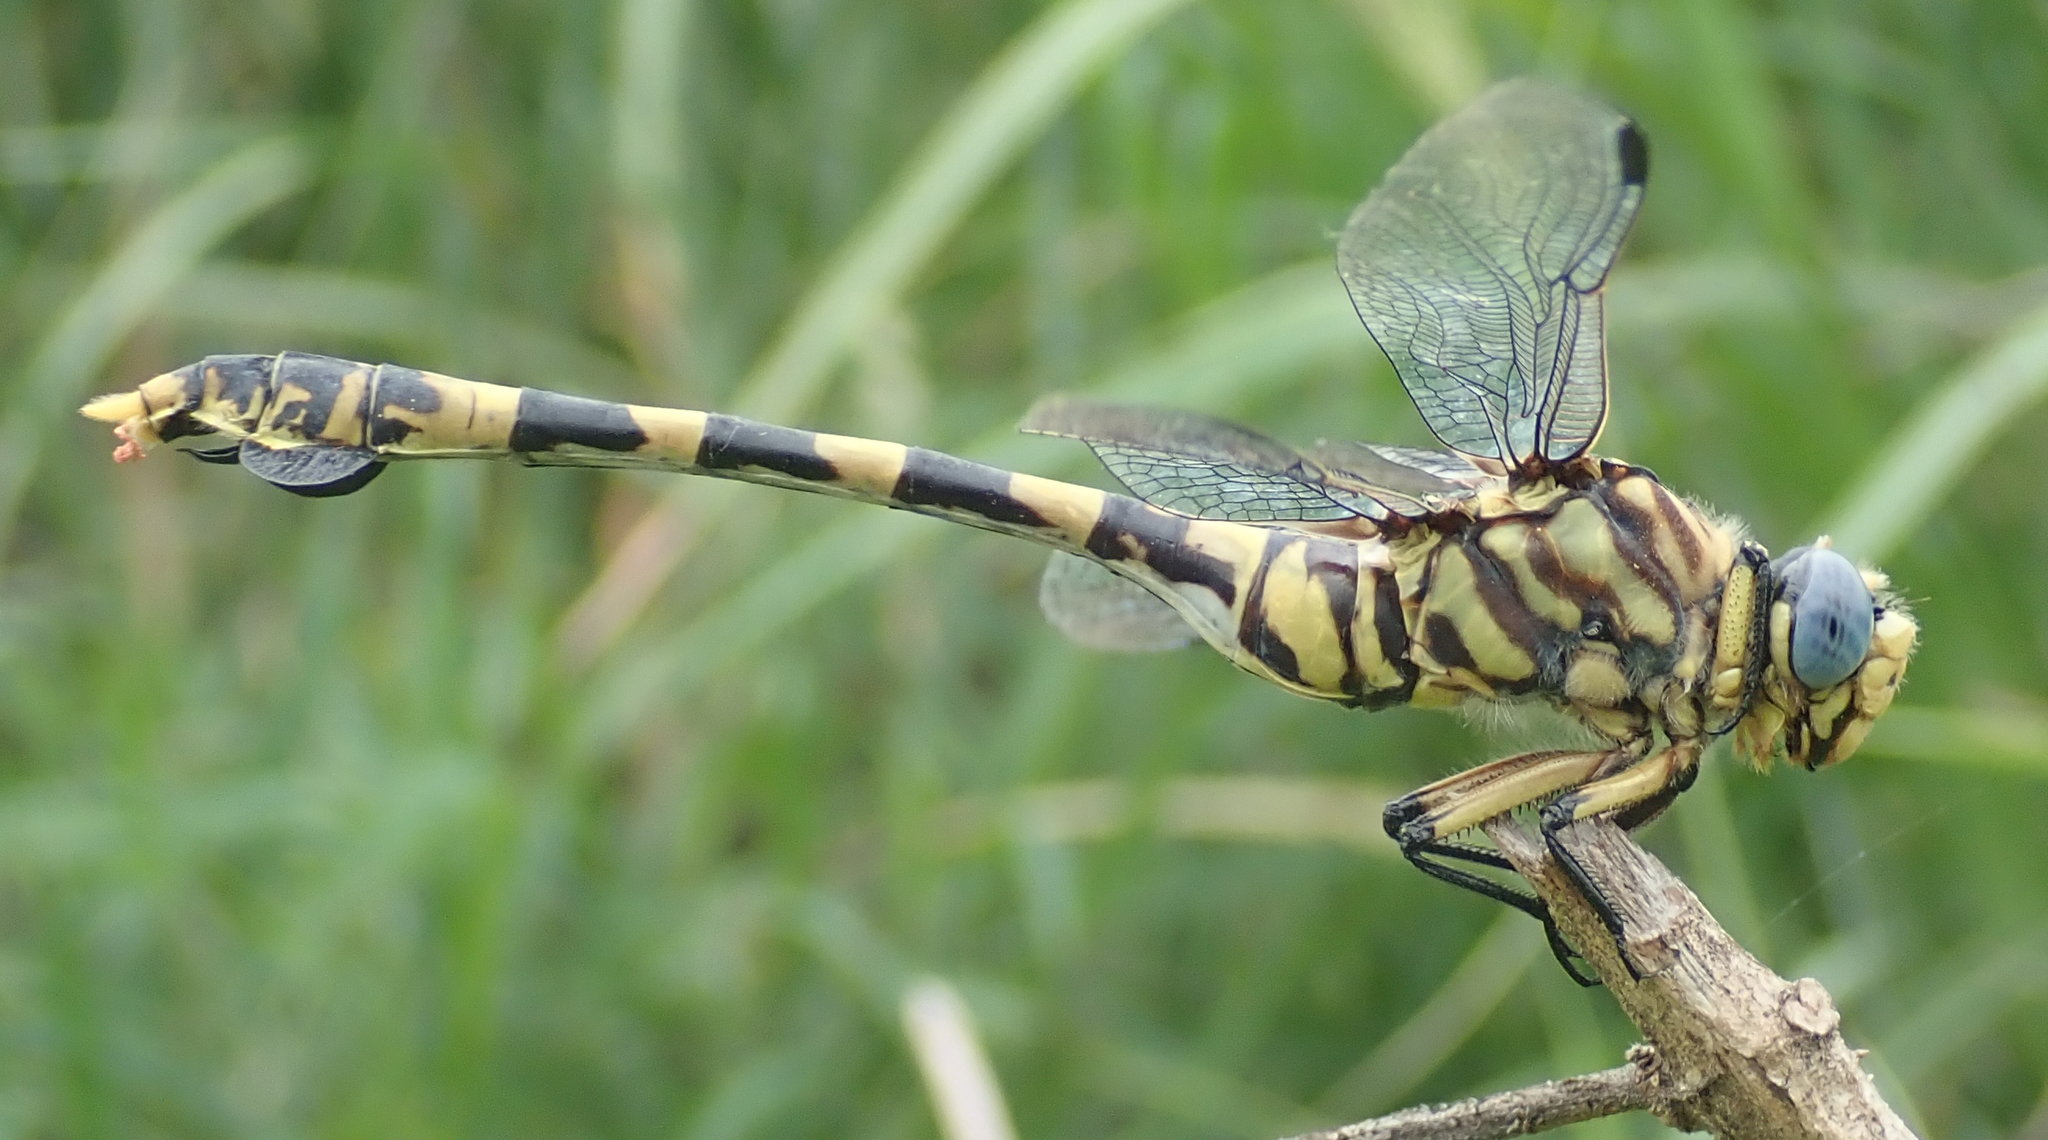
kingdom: Animalia
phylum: Arthropoda
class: Insecta
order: Odonata
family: Gomphidae
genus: Ictinogomphus
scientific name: Ictinogomphus ferox
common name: Common tiger
